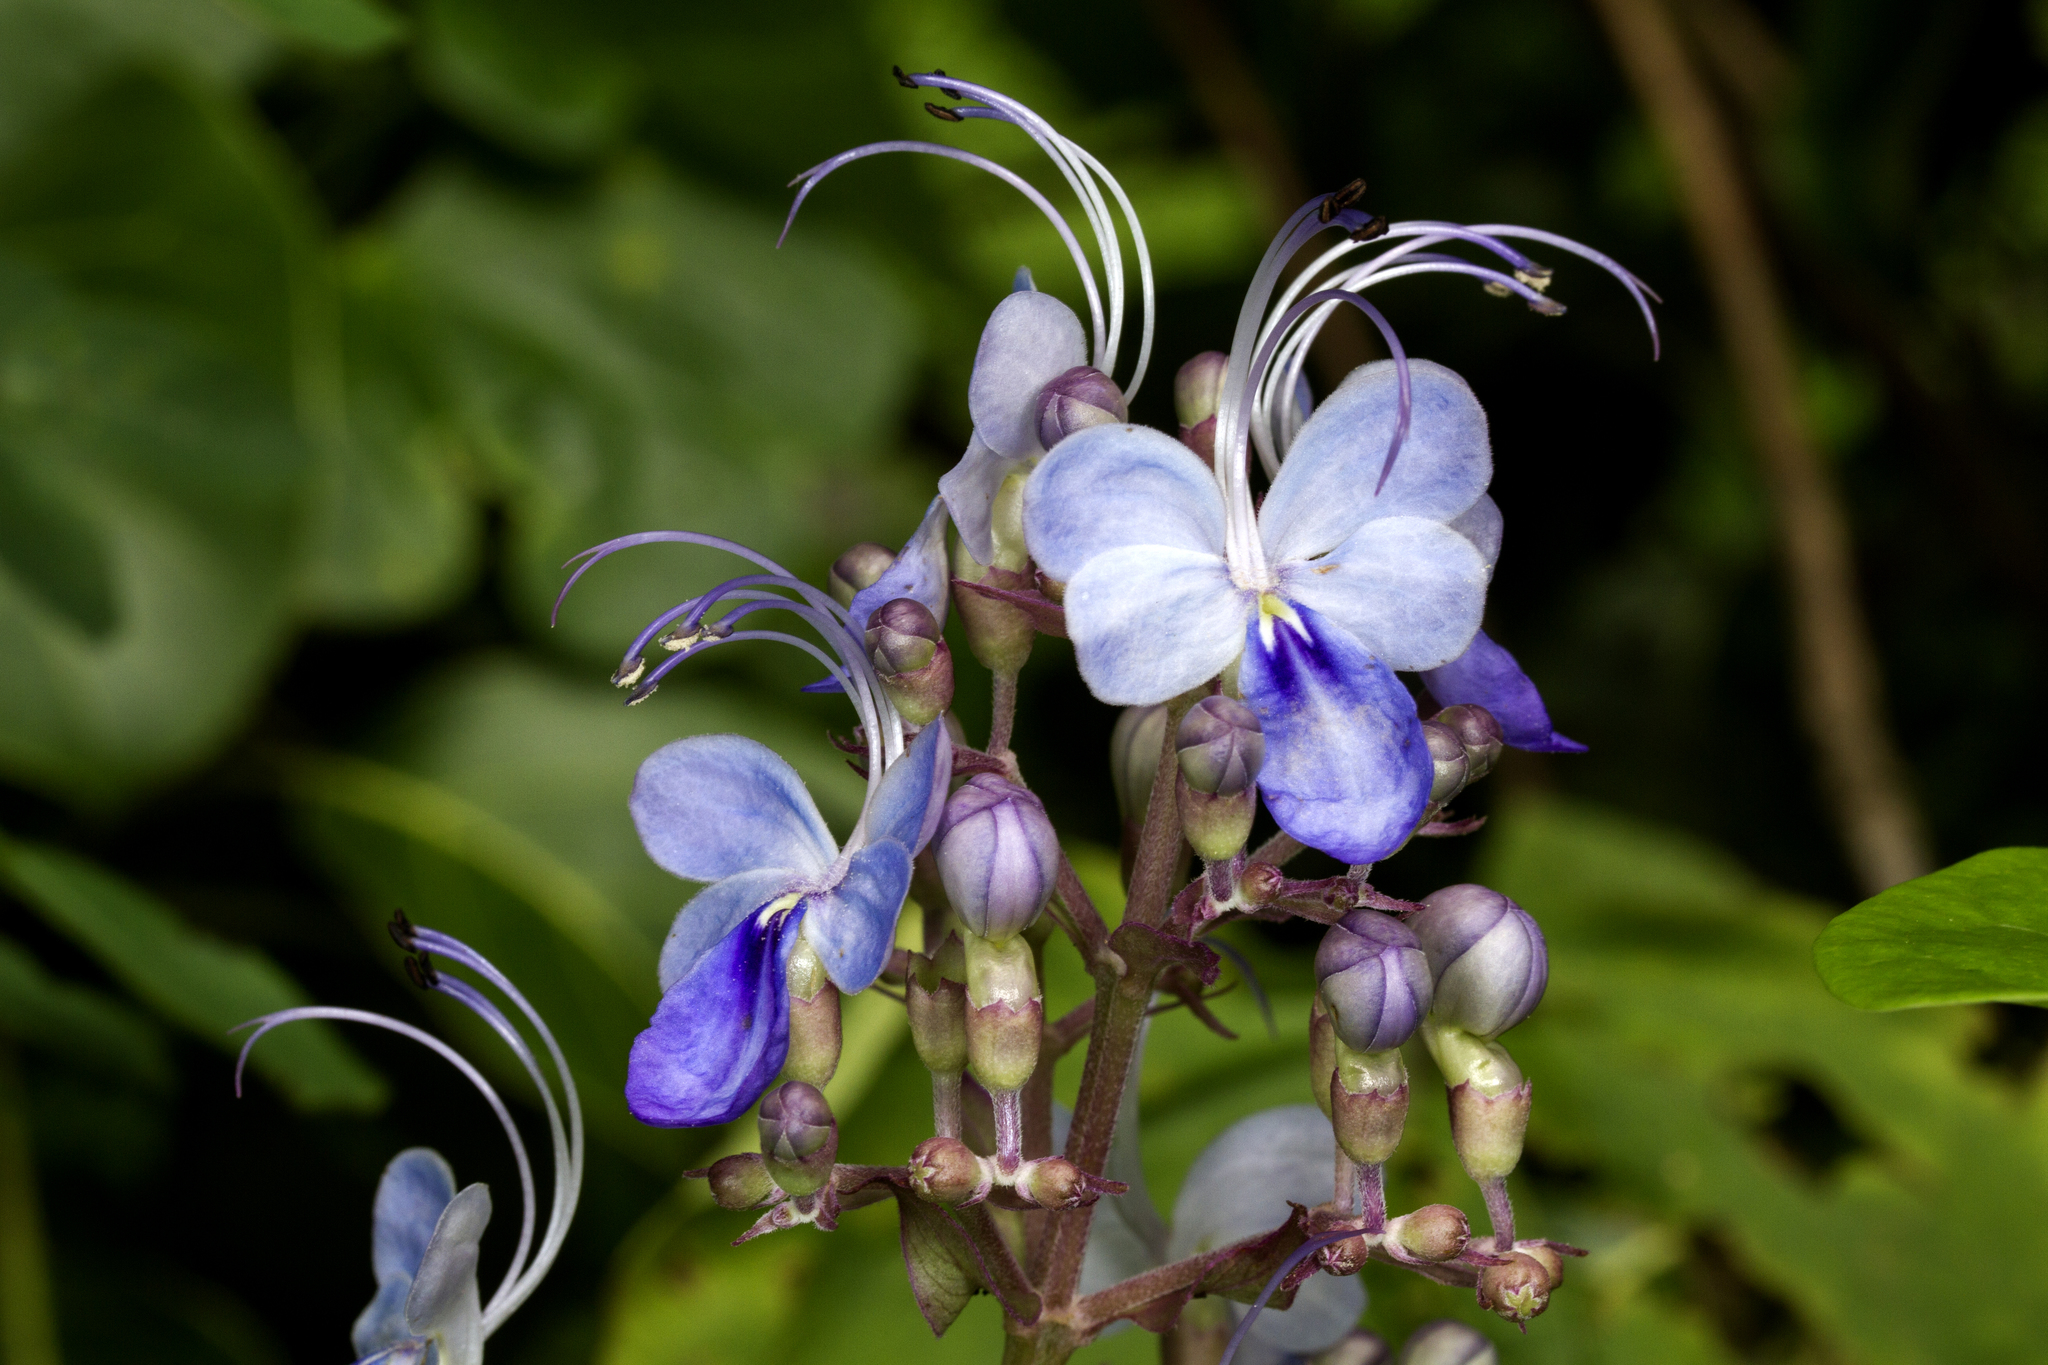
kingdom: Plantae
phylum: Tracheophyta
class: Magnoliopsida
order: Lamiales
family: Lamiaceae
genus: Rotheca
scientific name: Rotheca serrata
